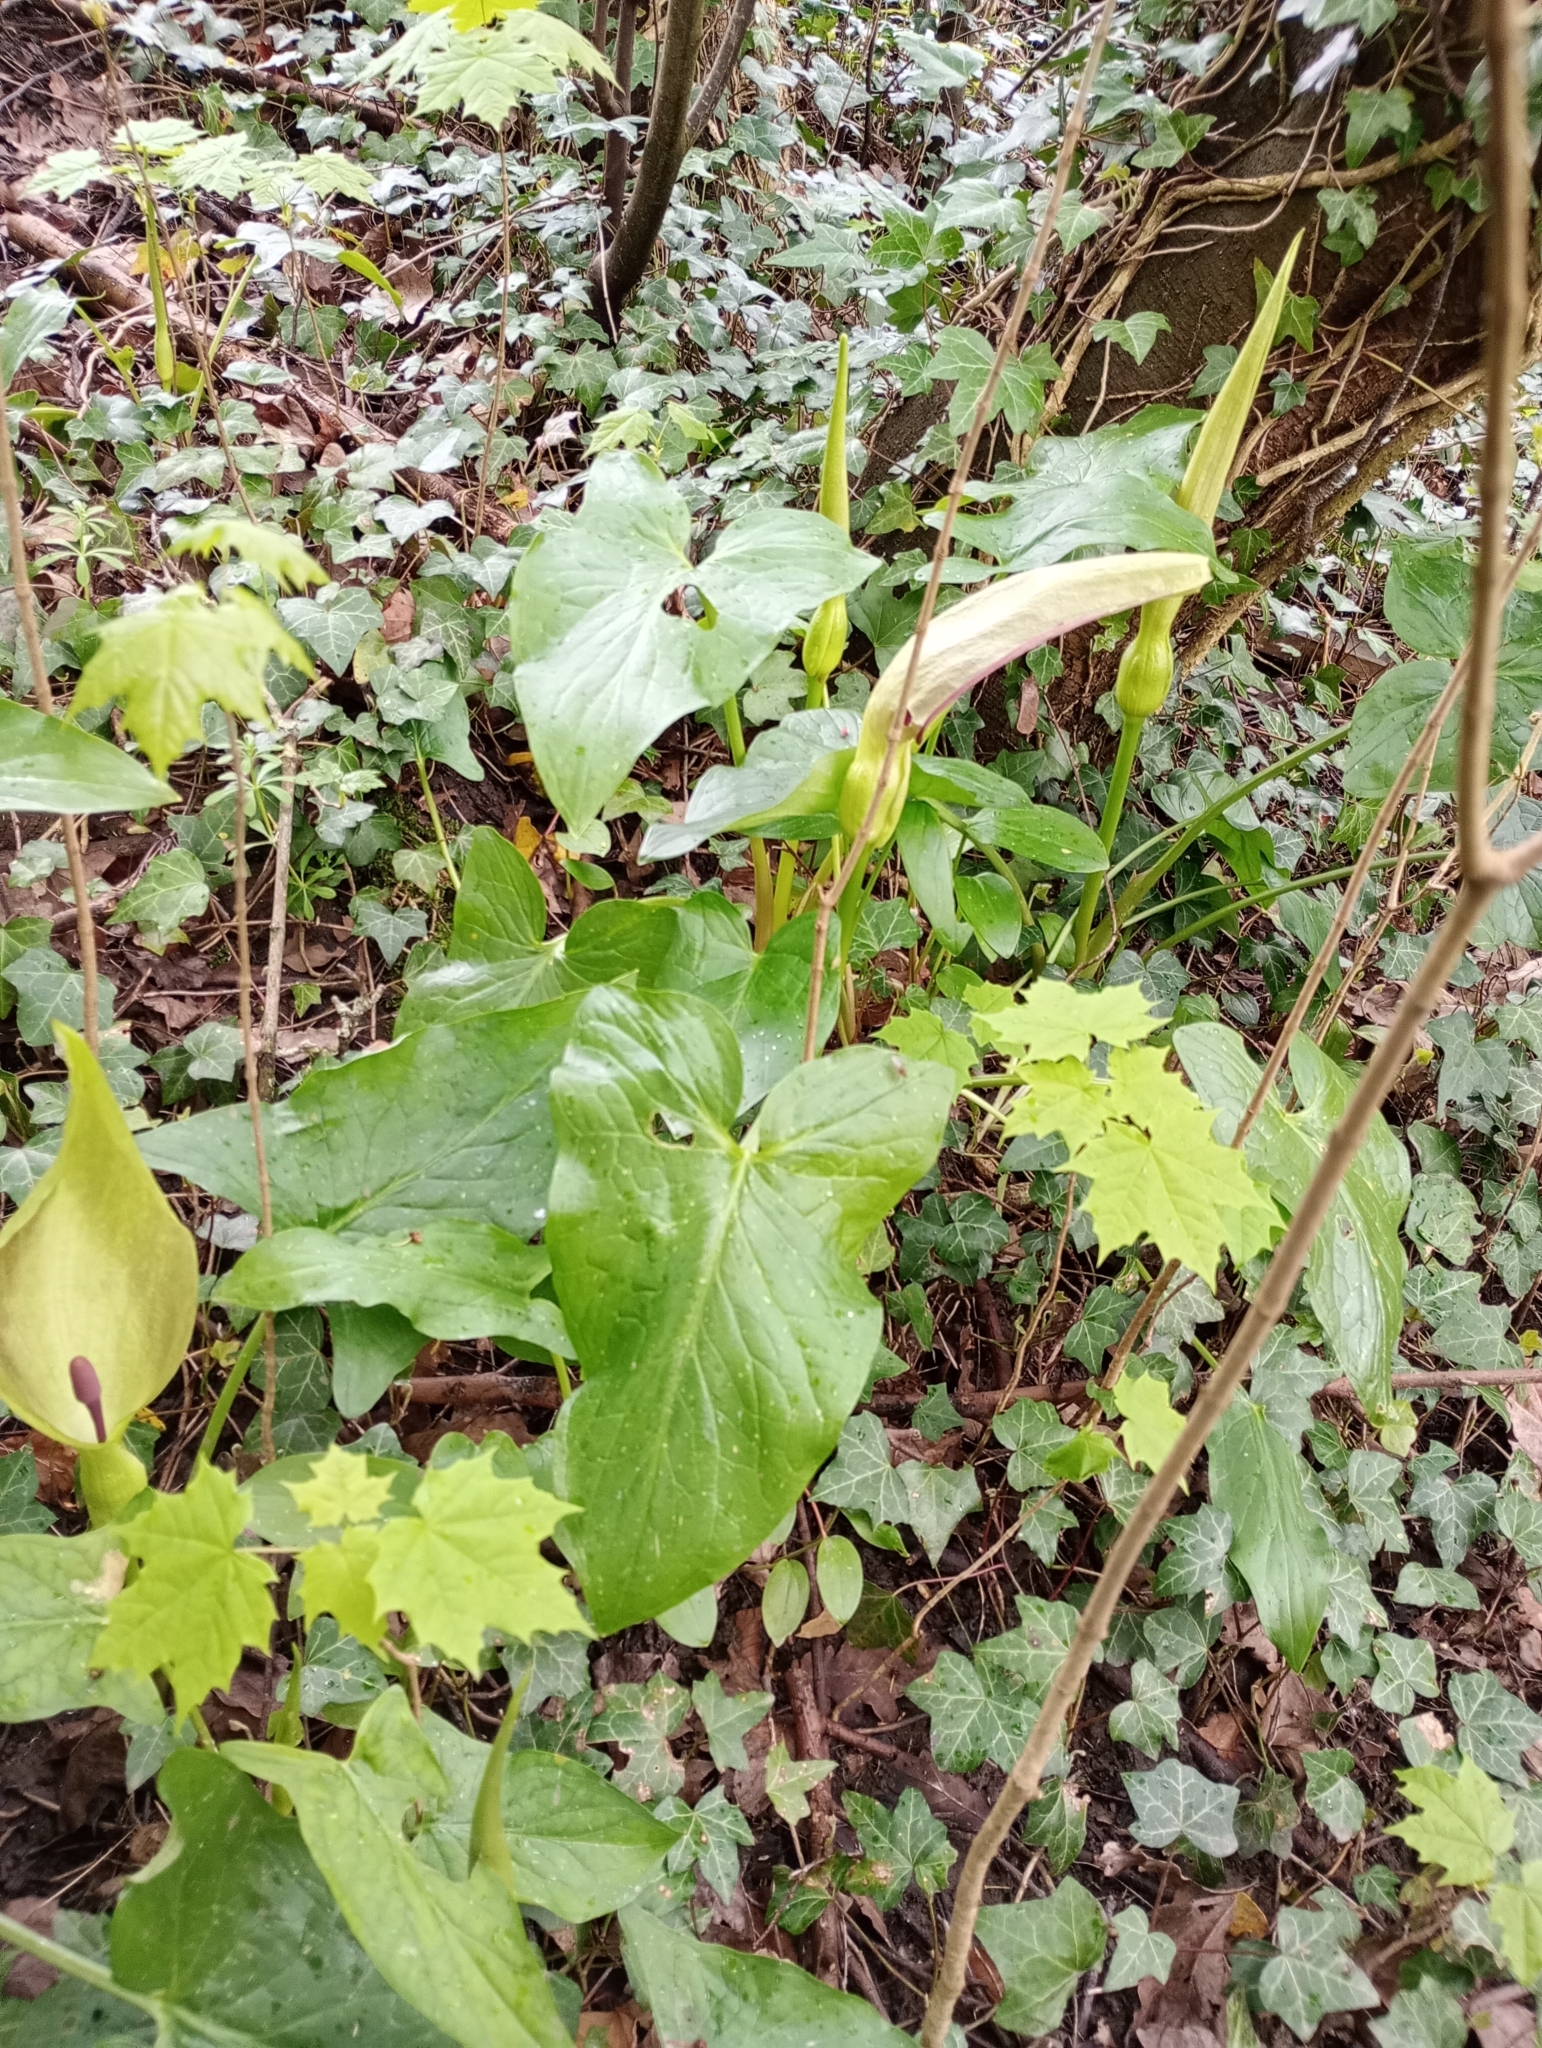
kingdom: Plantae
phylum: Tracheophyta
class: Liliopsida
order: Alismatales
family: Araceae
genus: Arum
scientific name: Arum maculatum
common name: Lords-and-ladies
